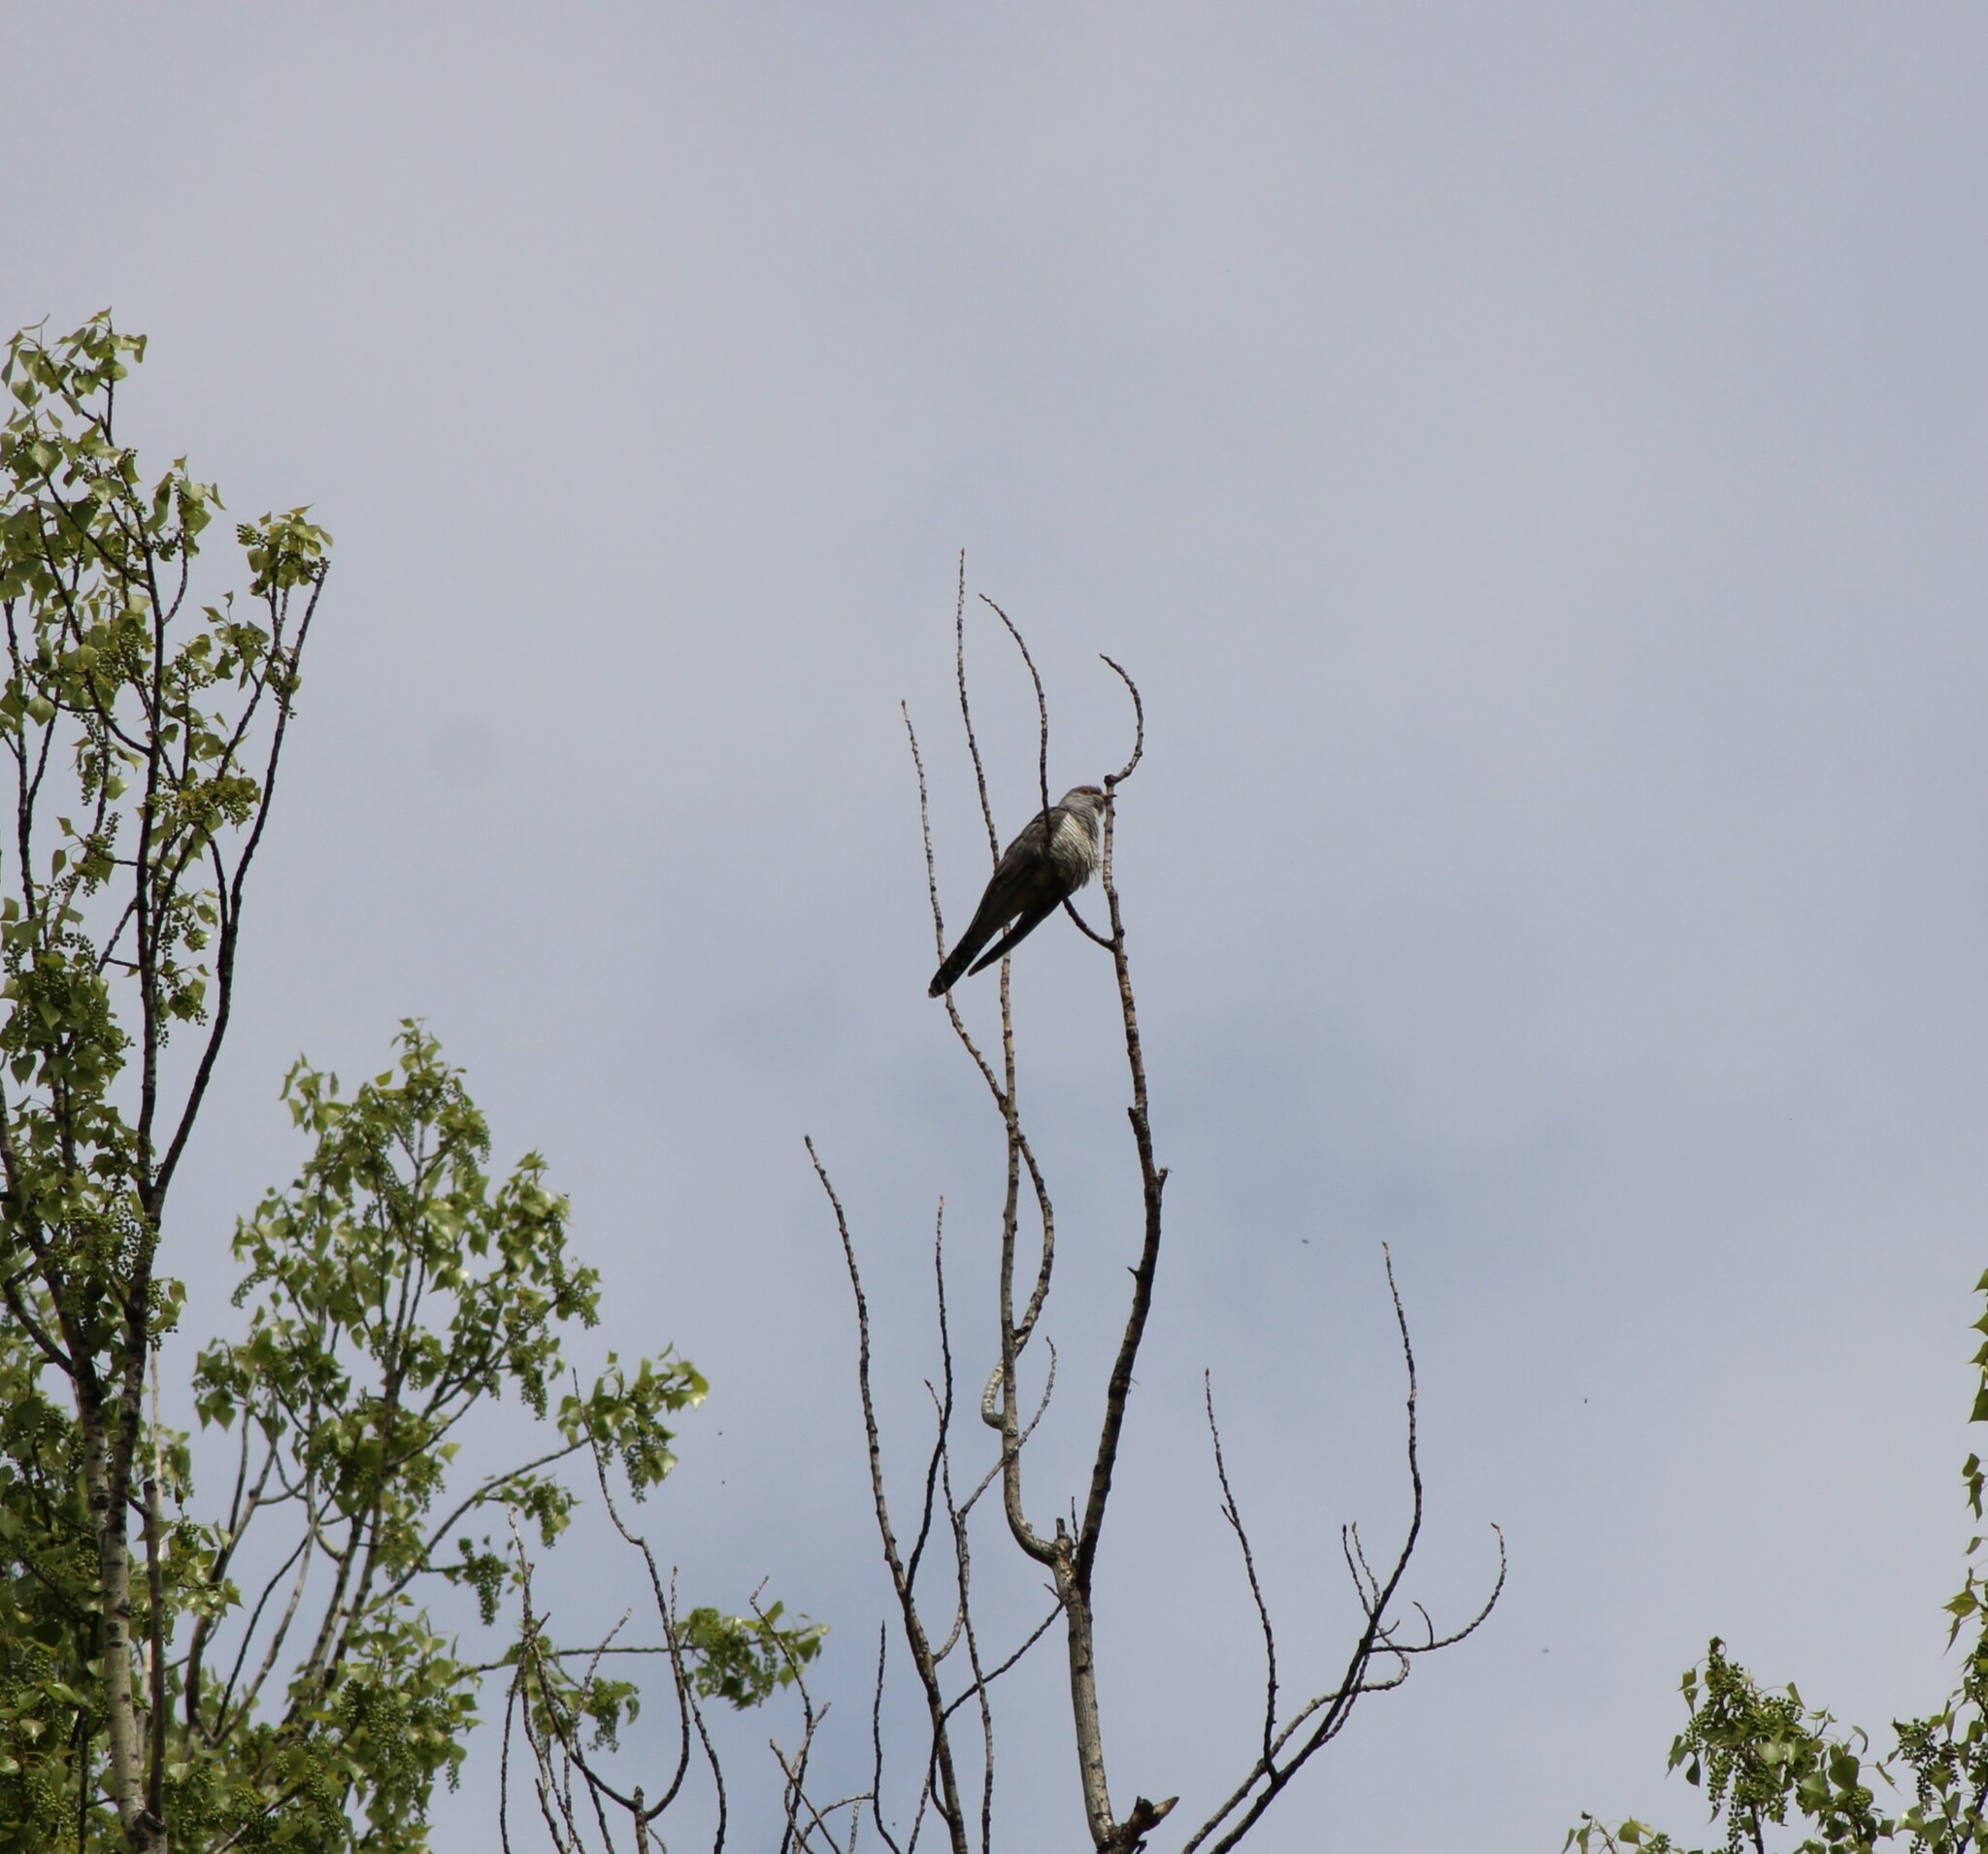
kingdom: Animalia
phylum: Chordata
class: Aves
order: Cuculiformes
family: Cuculidae
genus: Cuculus
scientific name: Cuculus canorus
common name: Common cuckoo
